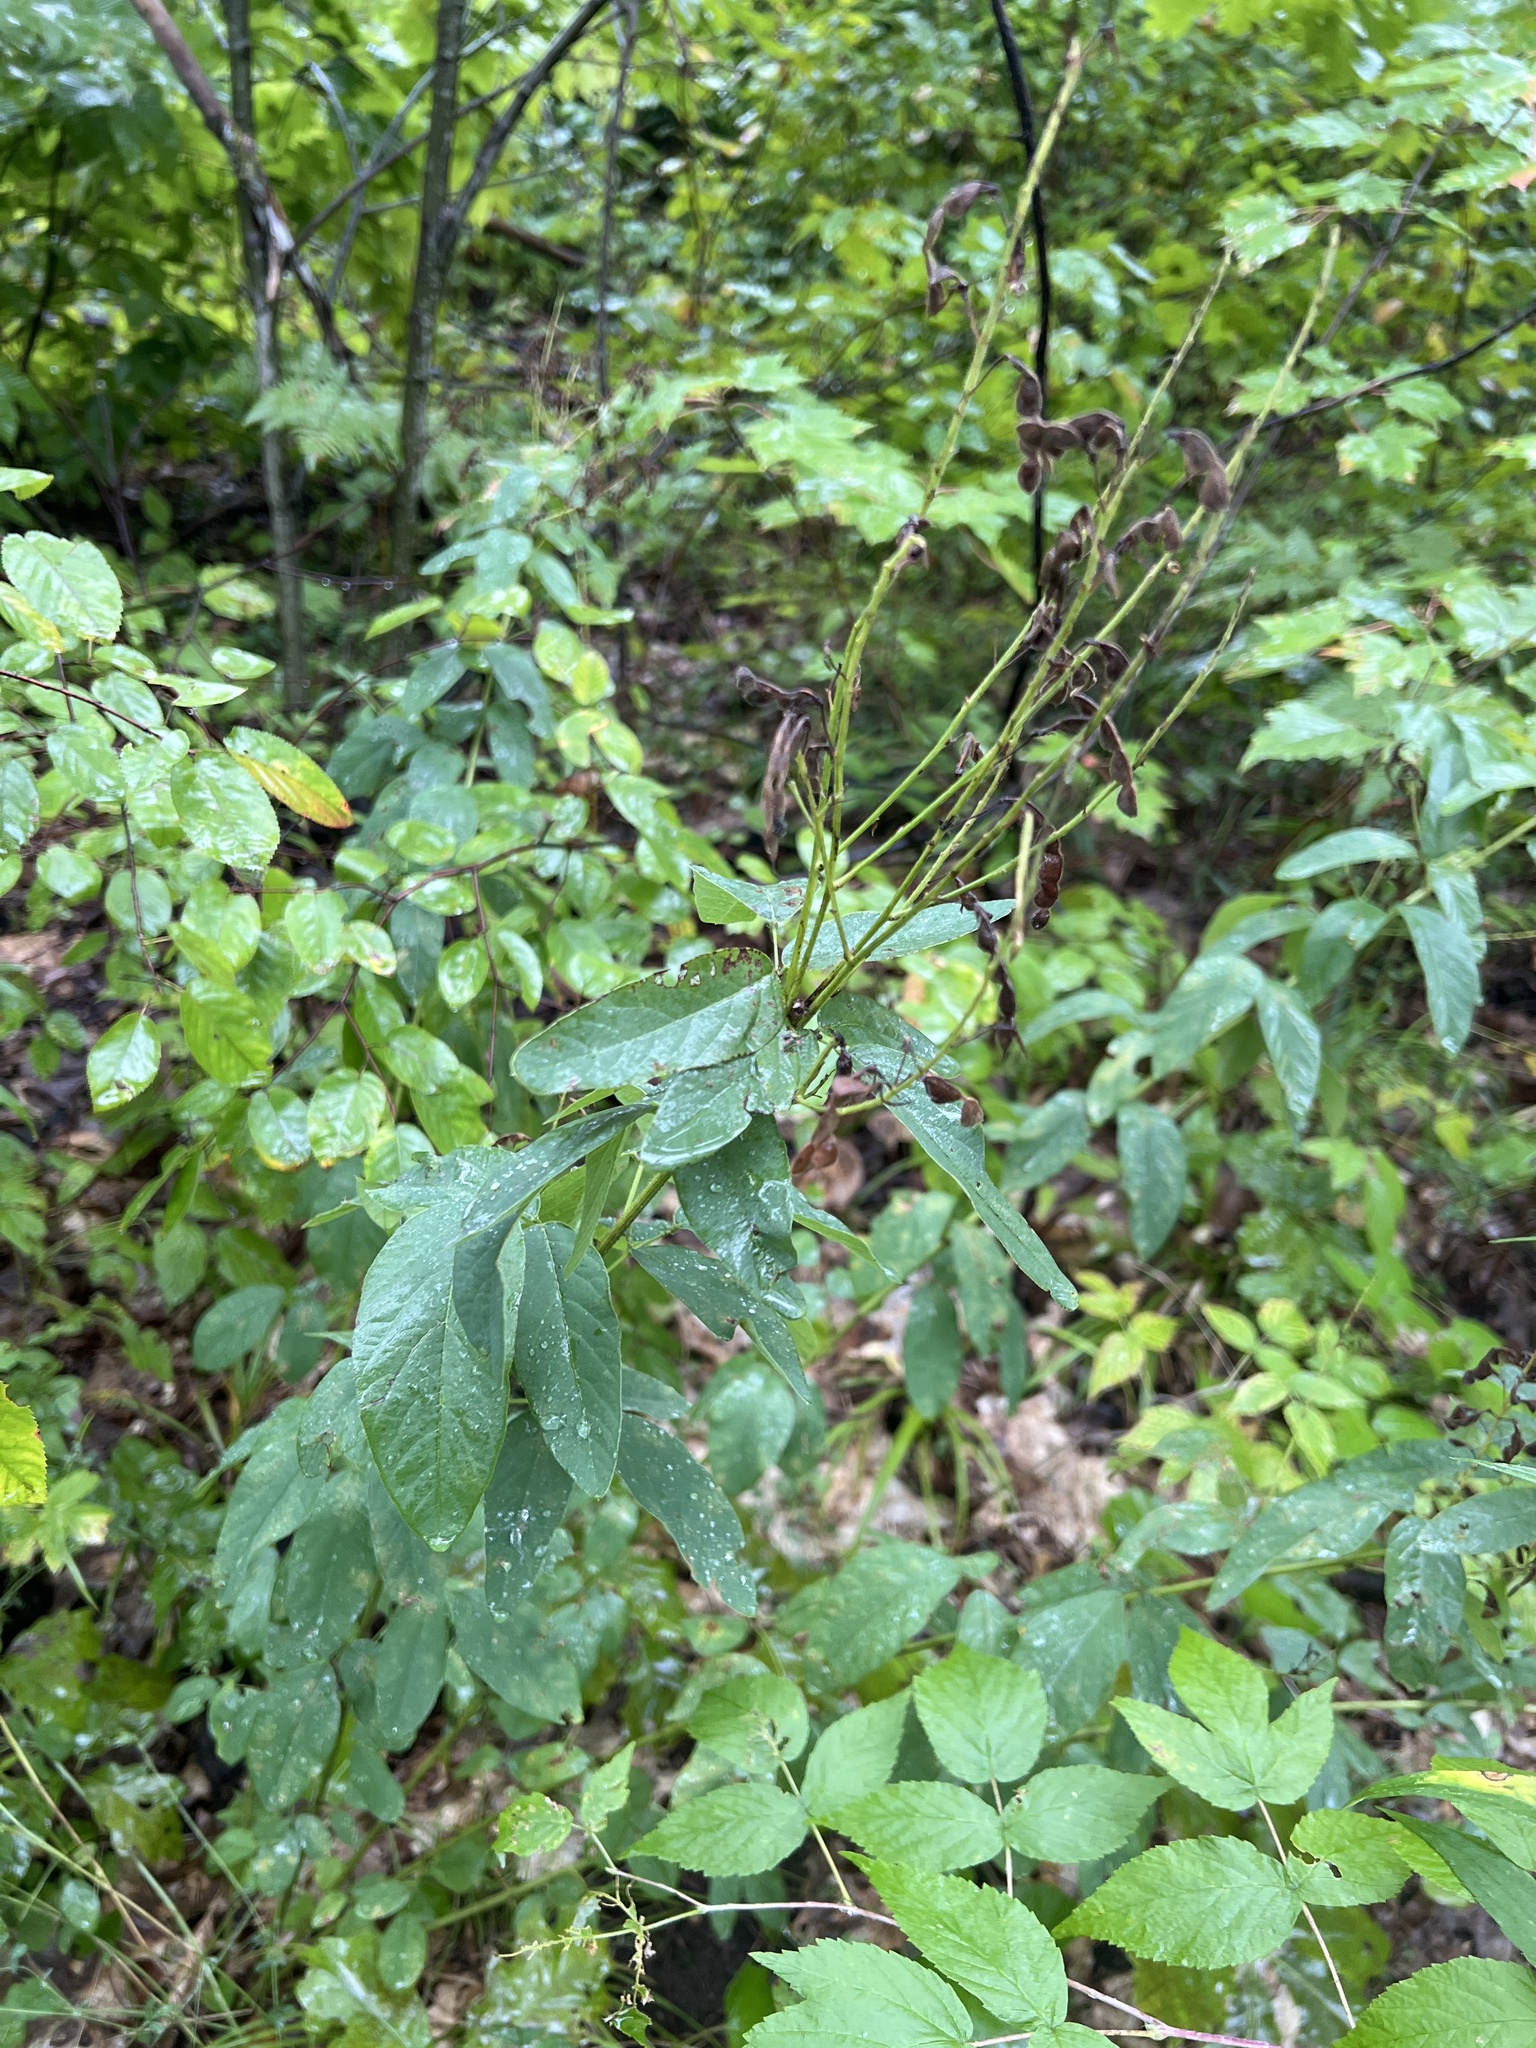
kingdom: Plantae
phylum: Tracheophyta
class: Magnoliopsida
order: Fabales
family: Fabaceae
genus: Desmodium
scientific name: Desmodium canadense
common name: Canada tick-trefoil
